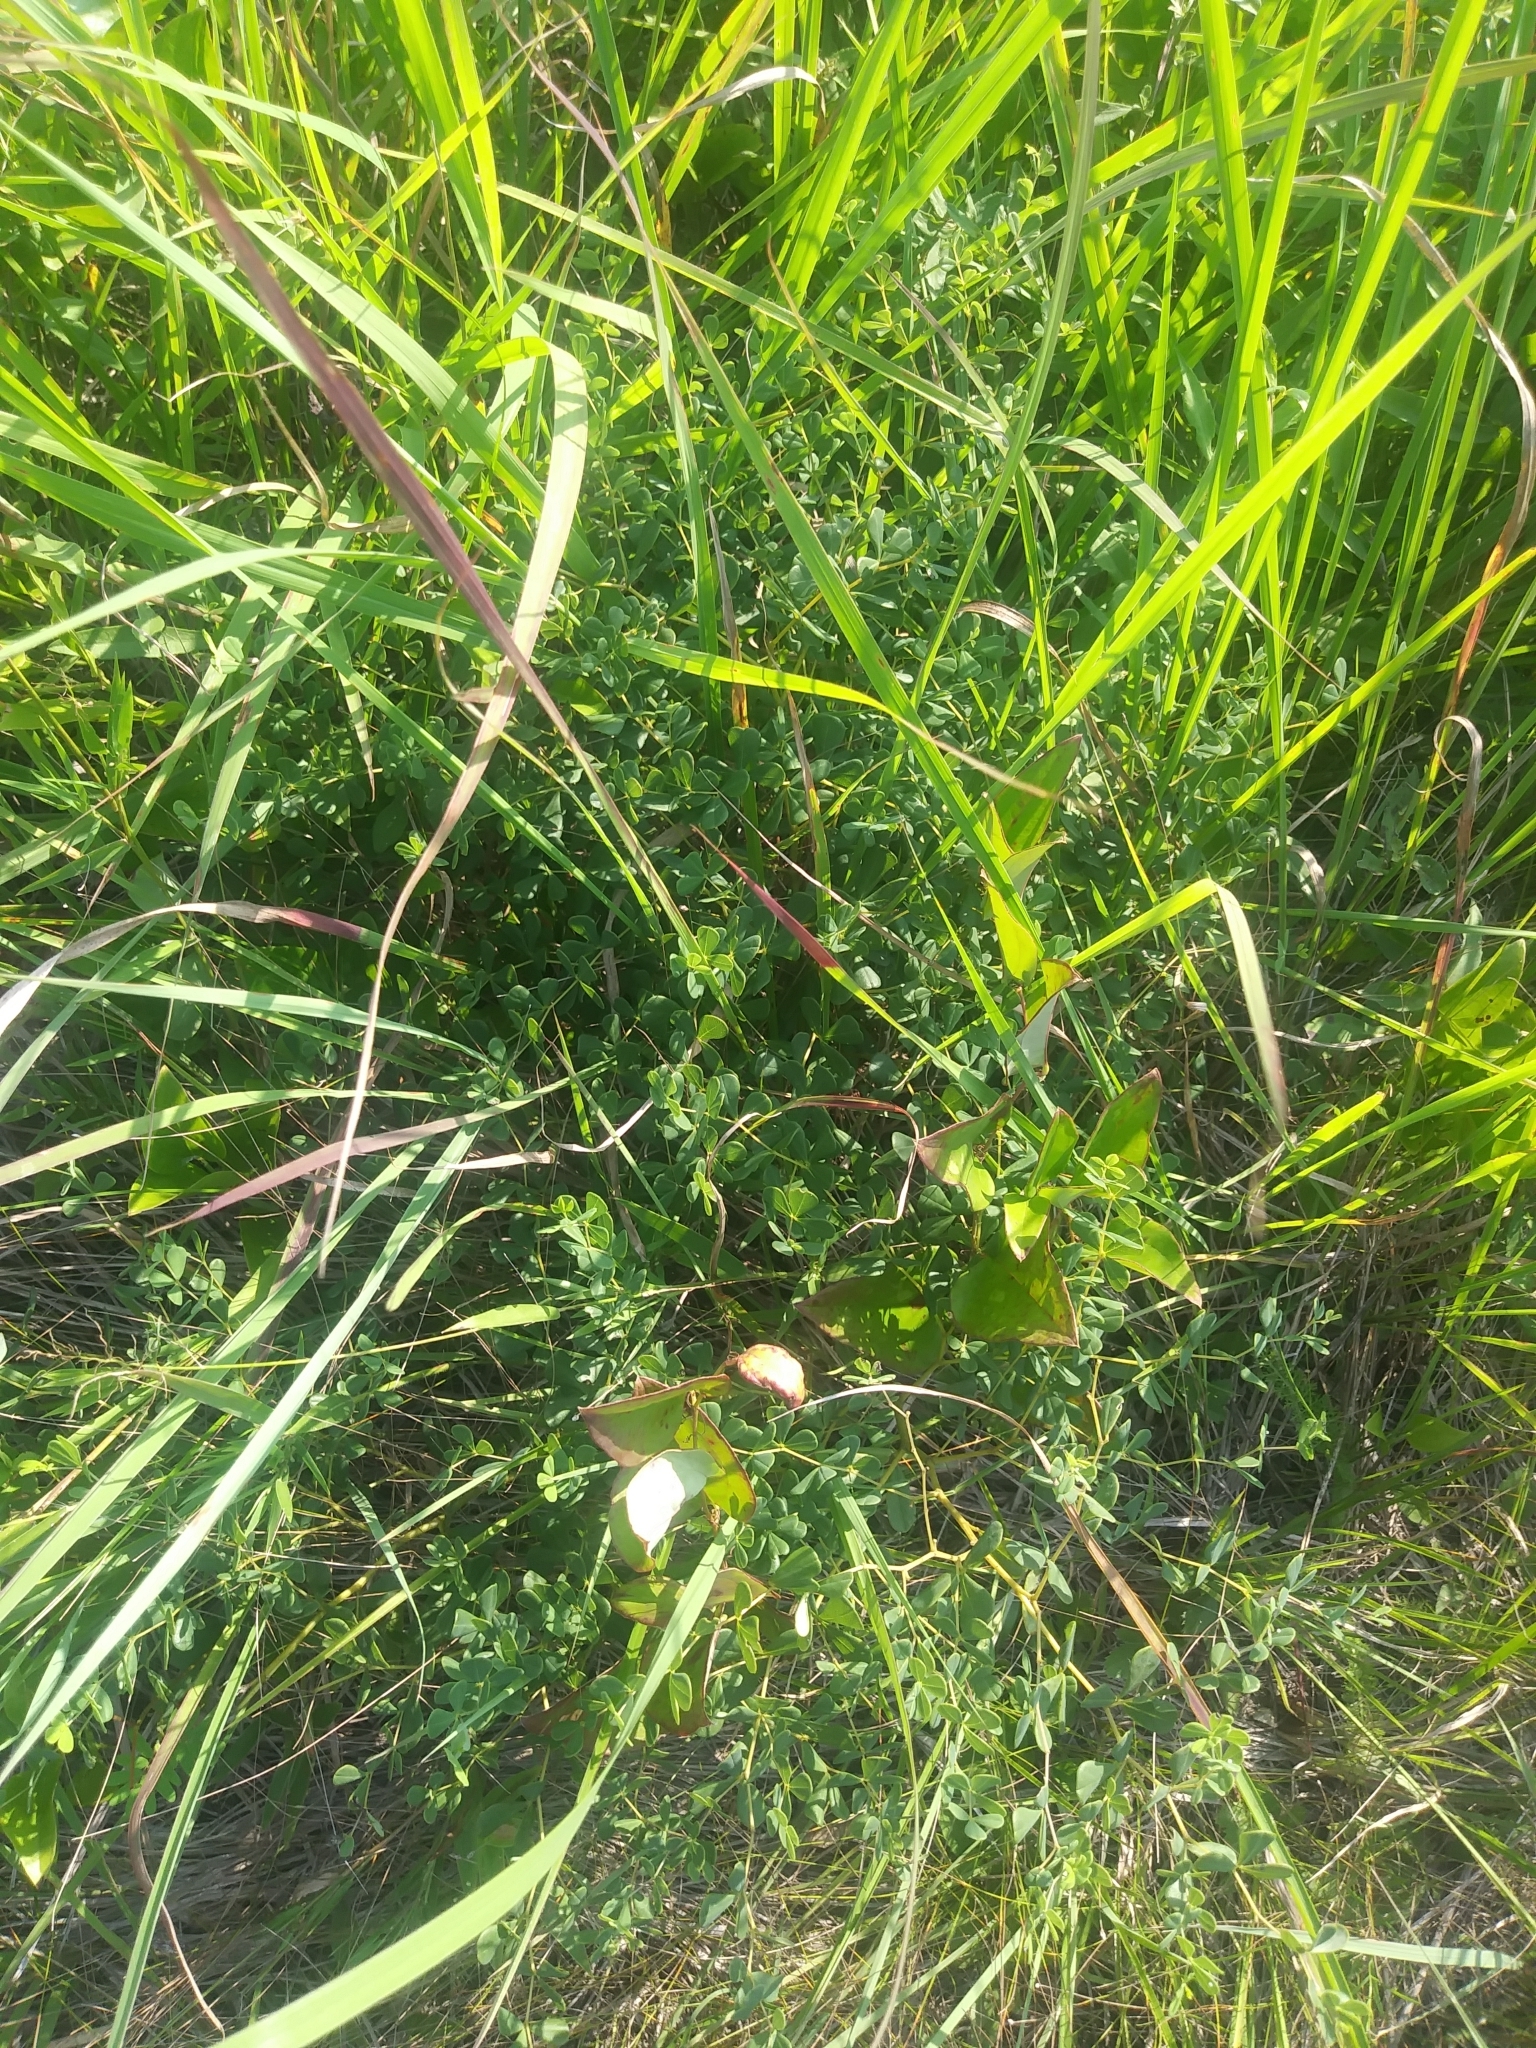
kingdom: Plantae
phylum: Tracheophyta
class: Magnoliopsida
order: Fabales
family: Fabaceae
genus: Baptisia
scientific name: Baptisia tinctoria
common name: Wild indigo
